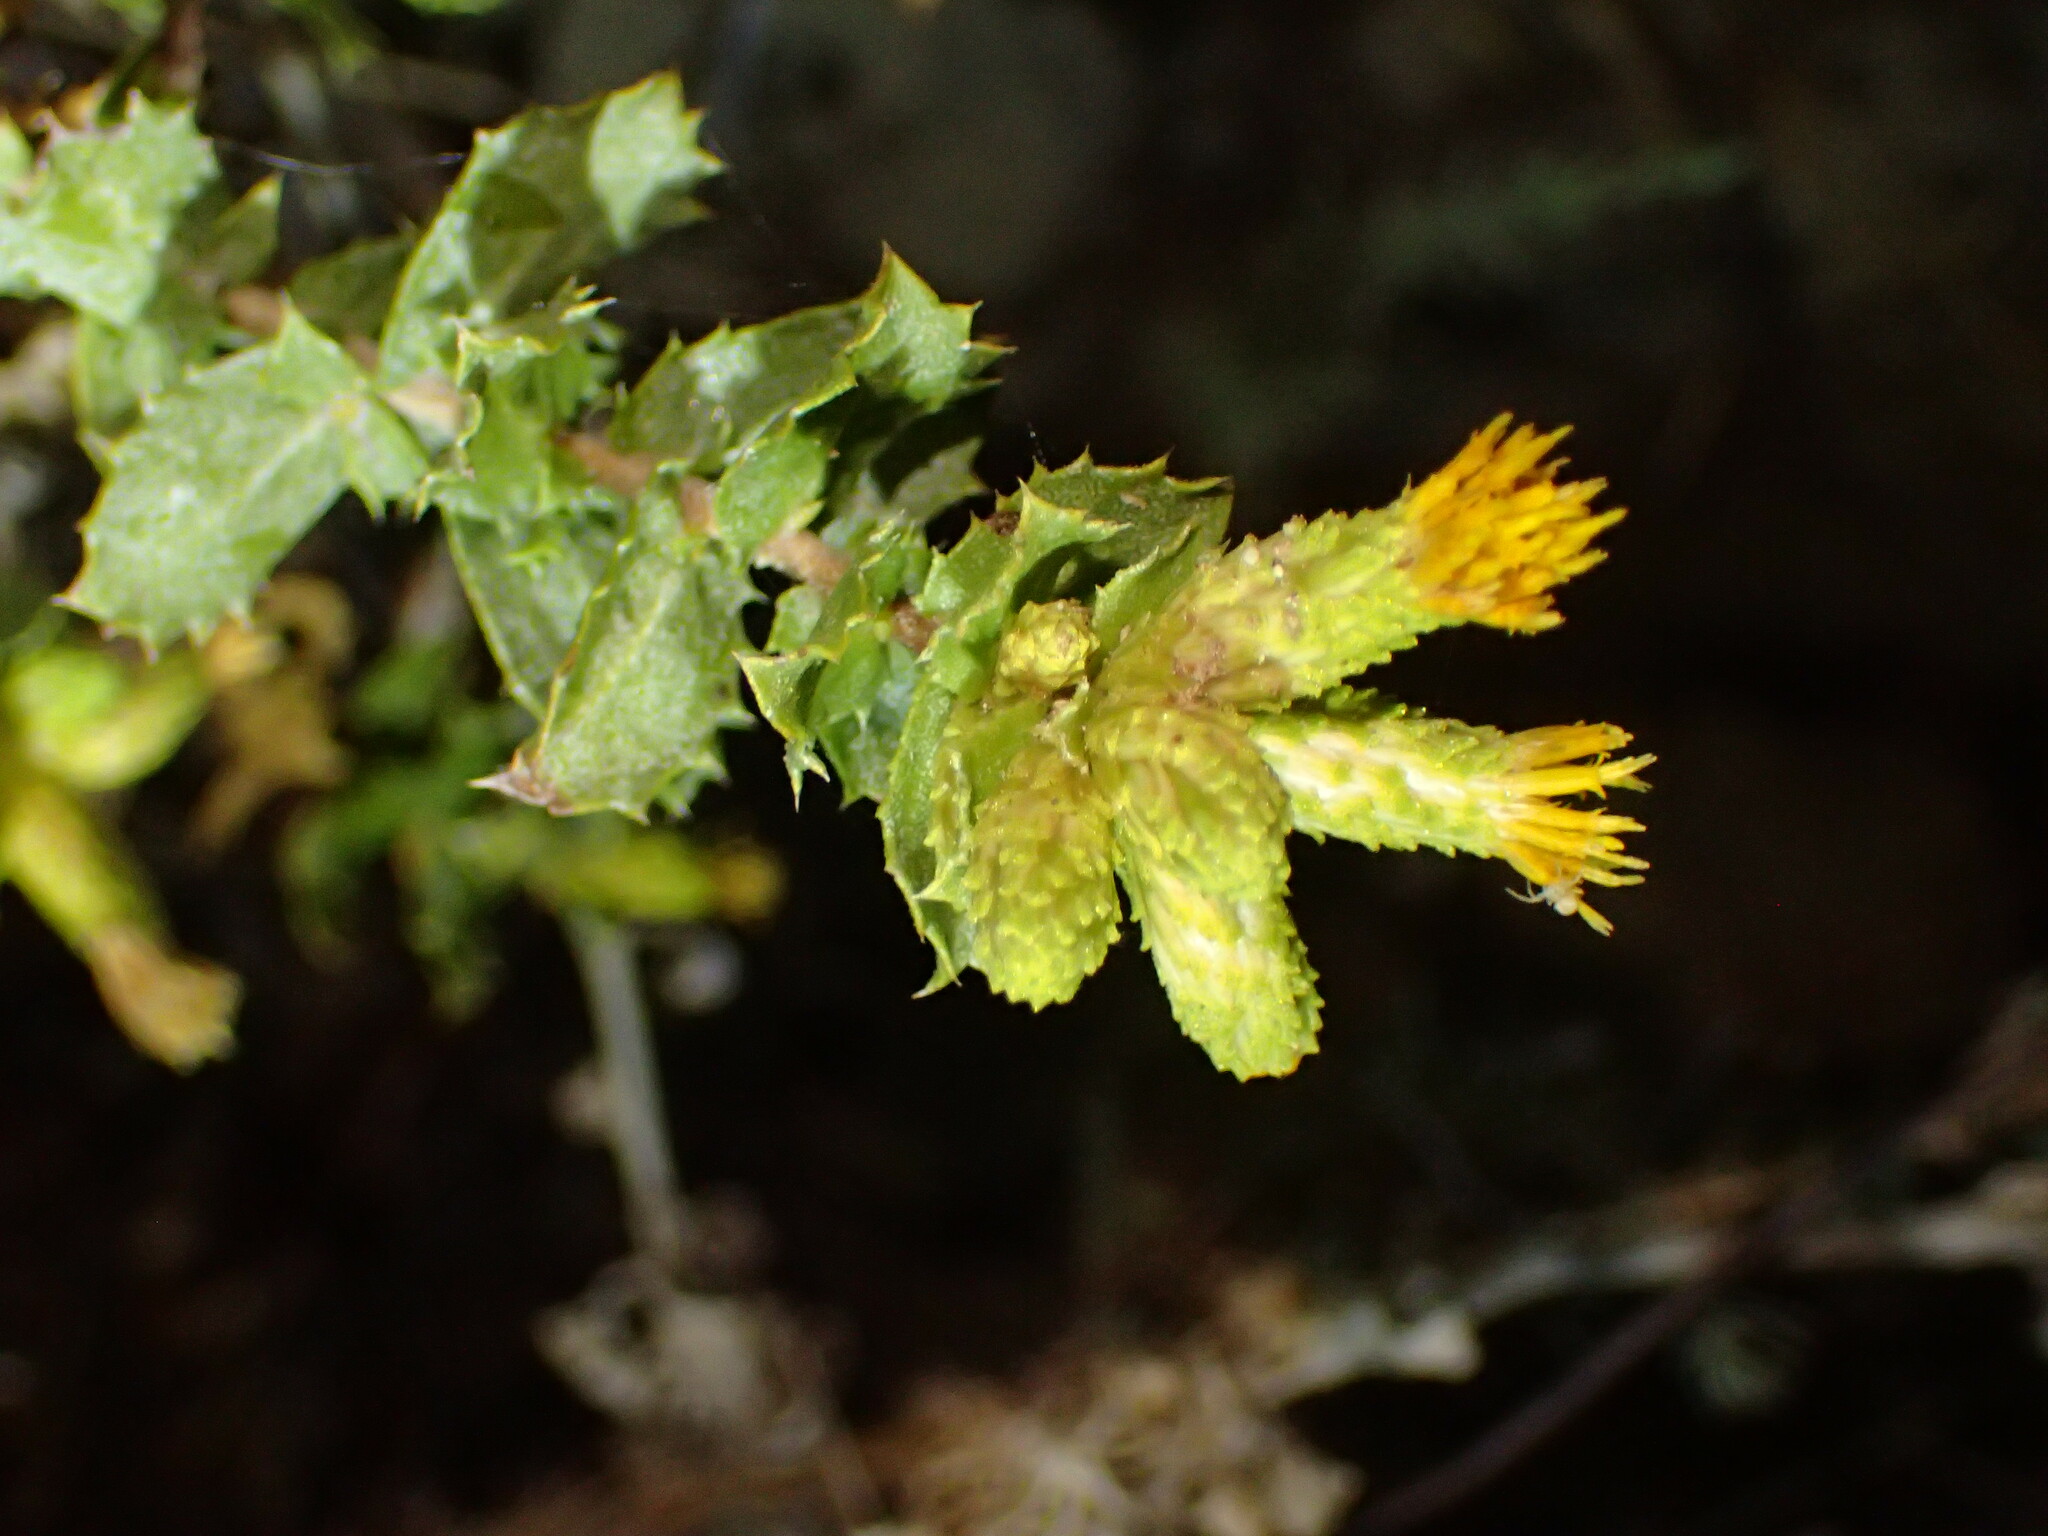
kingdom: Plantae
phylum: Tracheophyta
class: Magnoliopsida
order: Asterales
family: Asteraceae
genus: Hazardia
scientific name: Hazardia squarrosa
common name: Saw-tooth goldenbush
